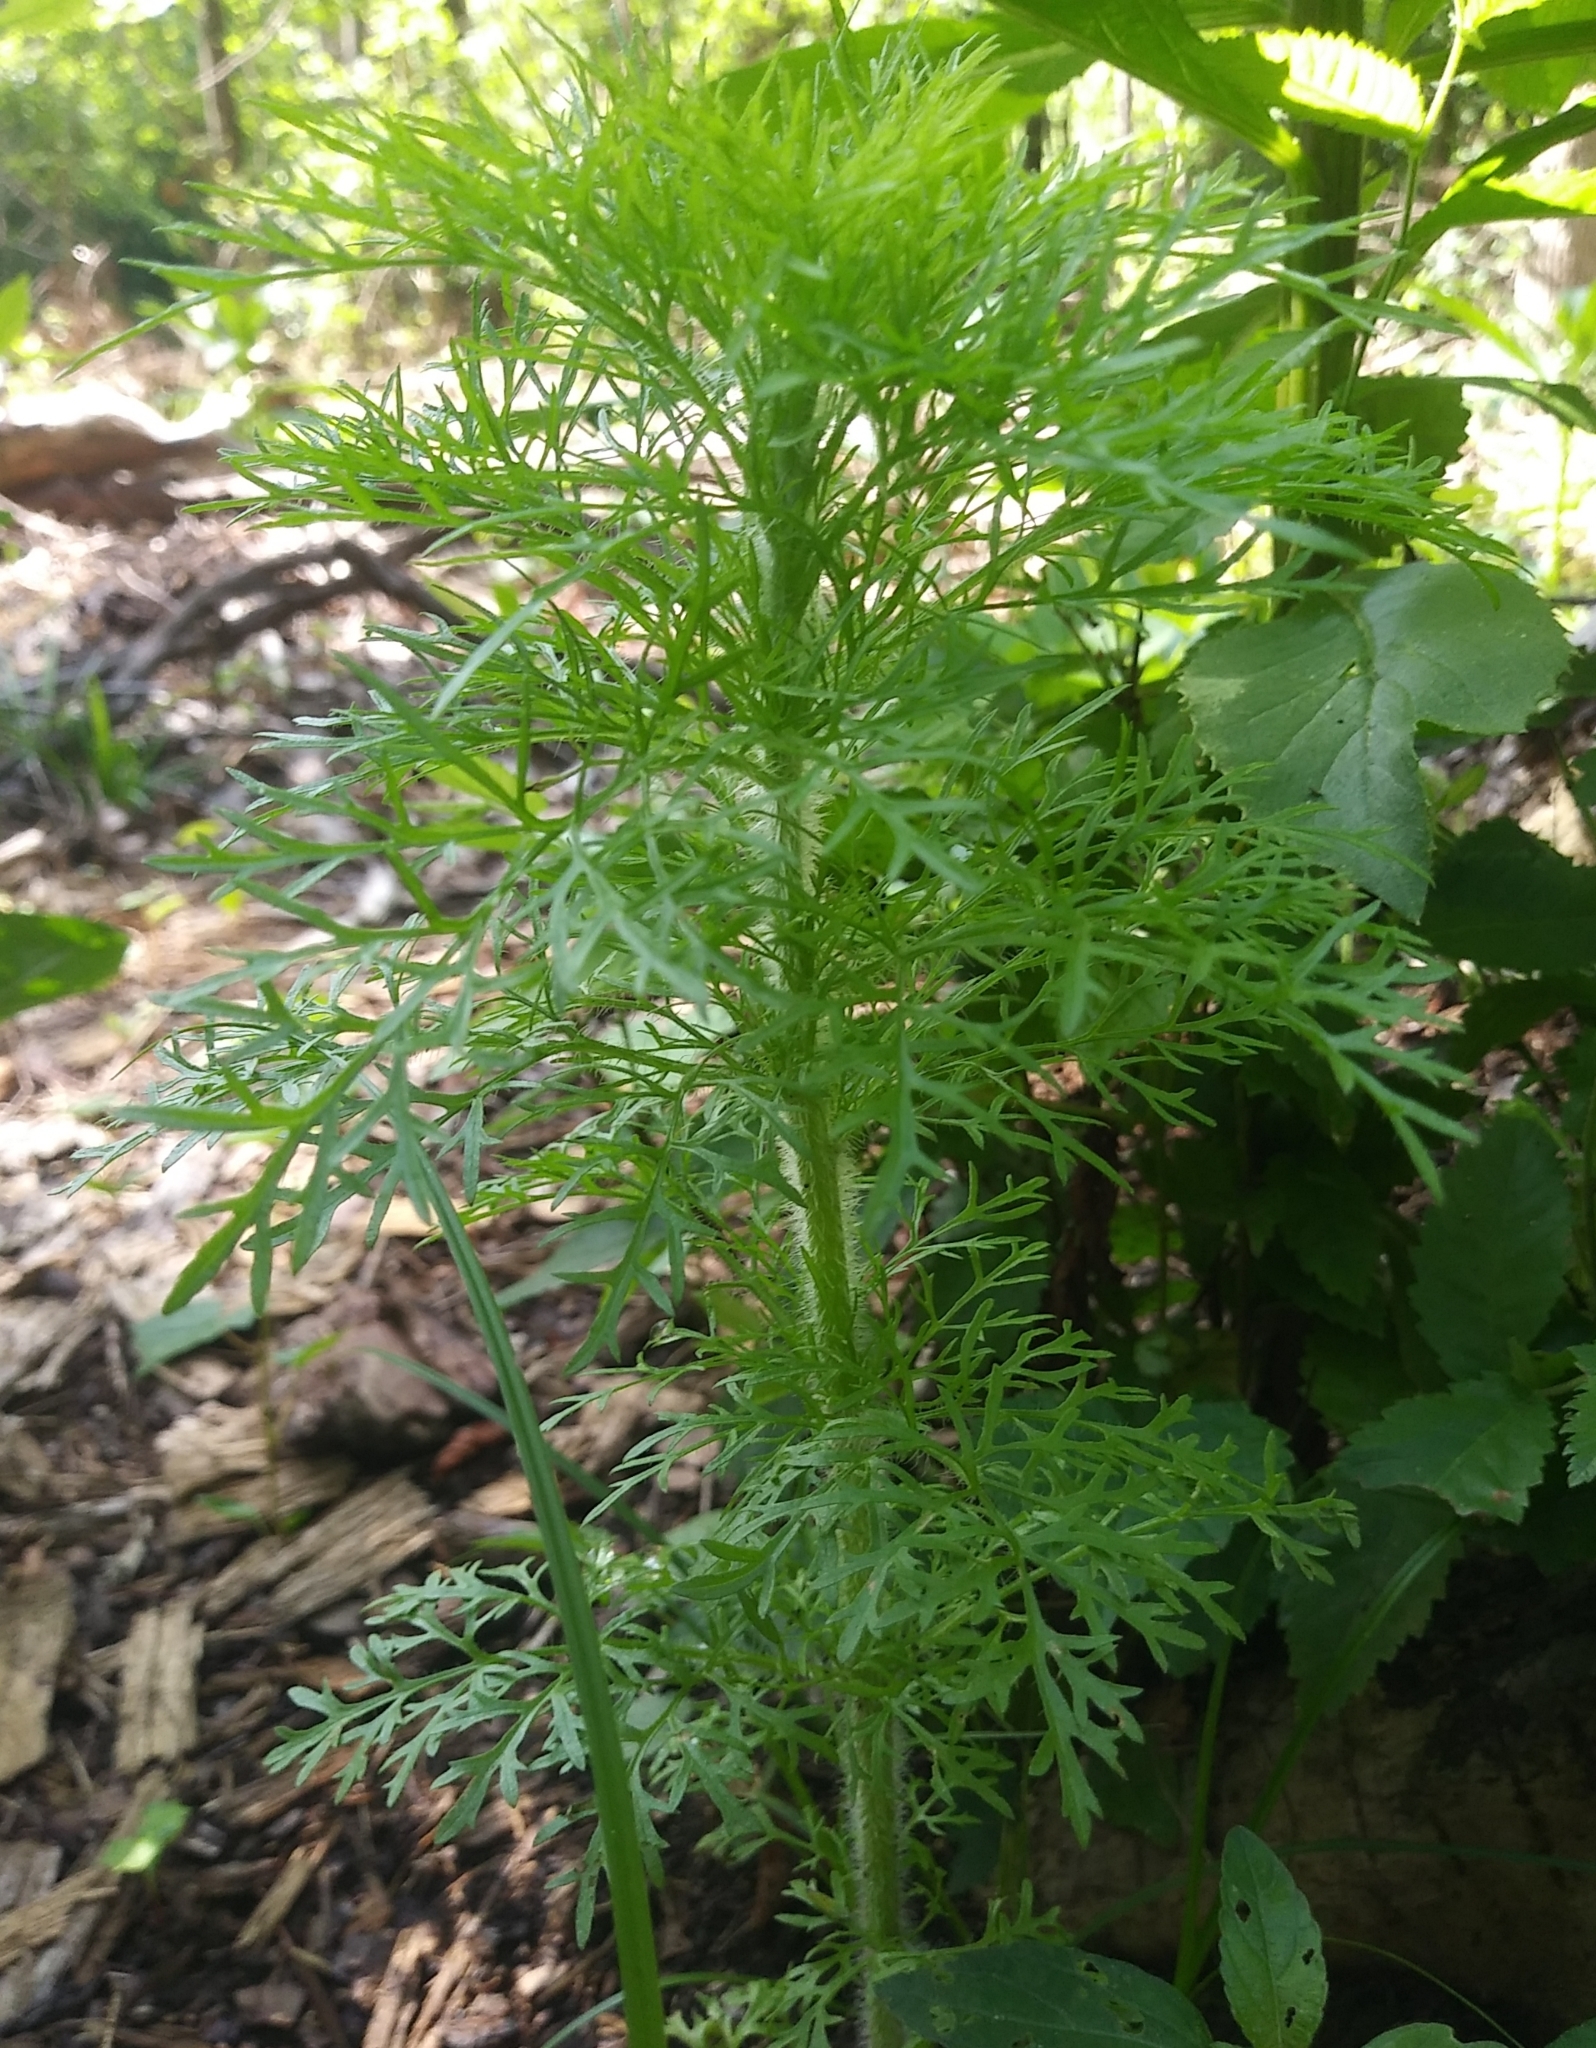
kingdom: Plantae
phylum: Tracheophyta
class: Magnoliopsida
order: Asterales
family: Asteraceae
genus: Eupatorium
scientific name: Eupatorium capillifolium
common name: Dog-fennel
